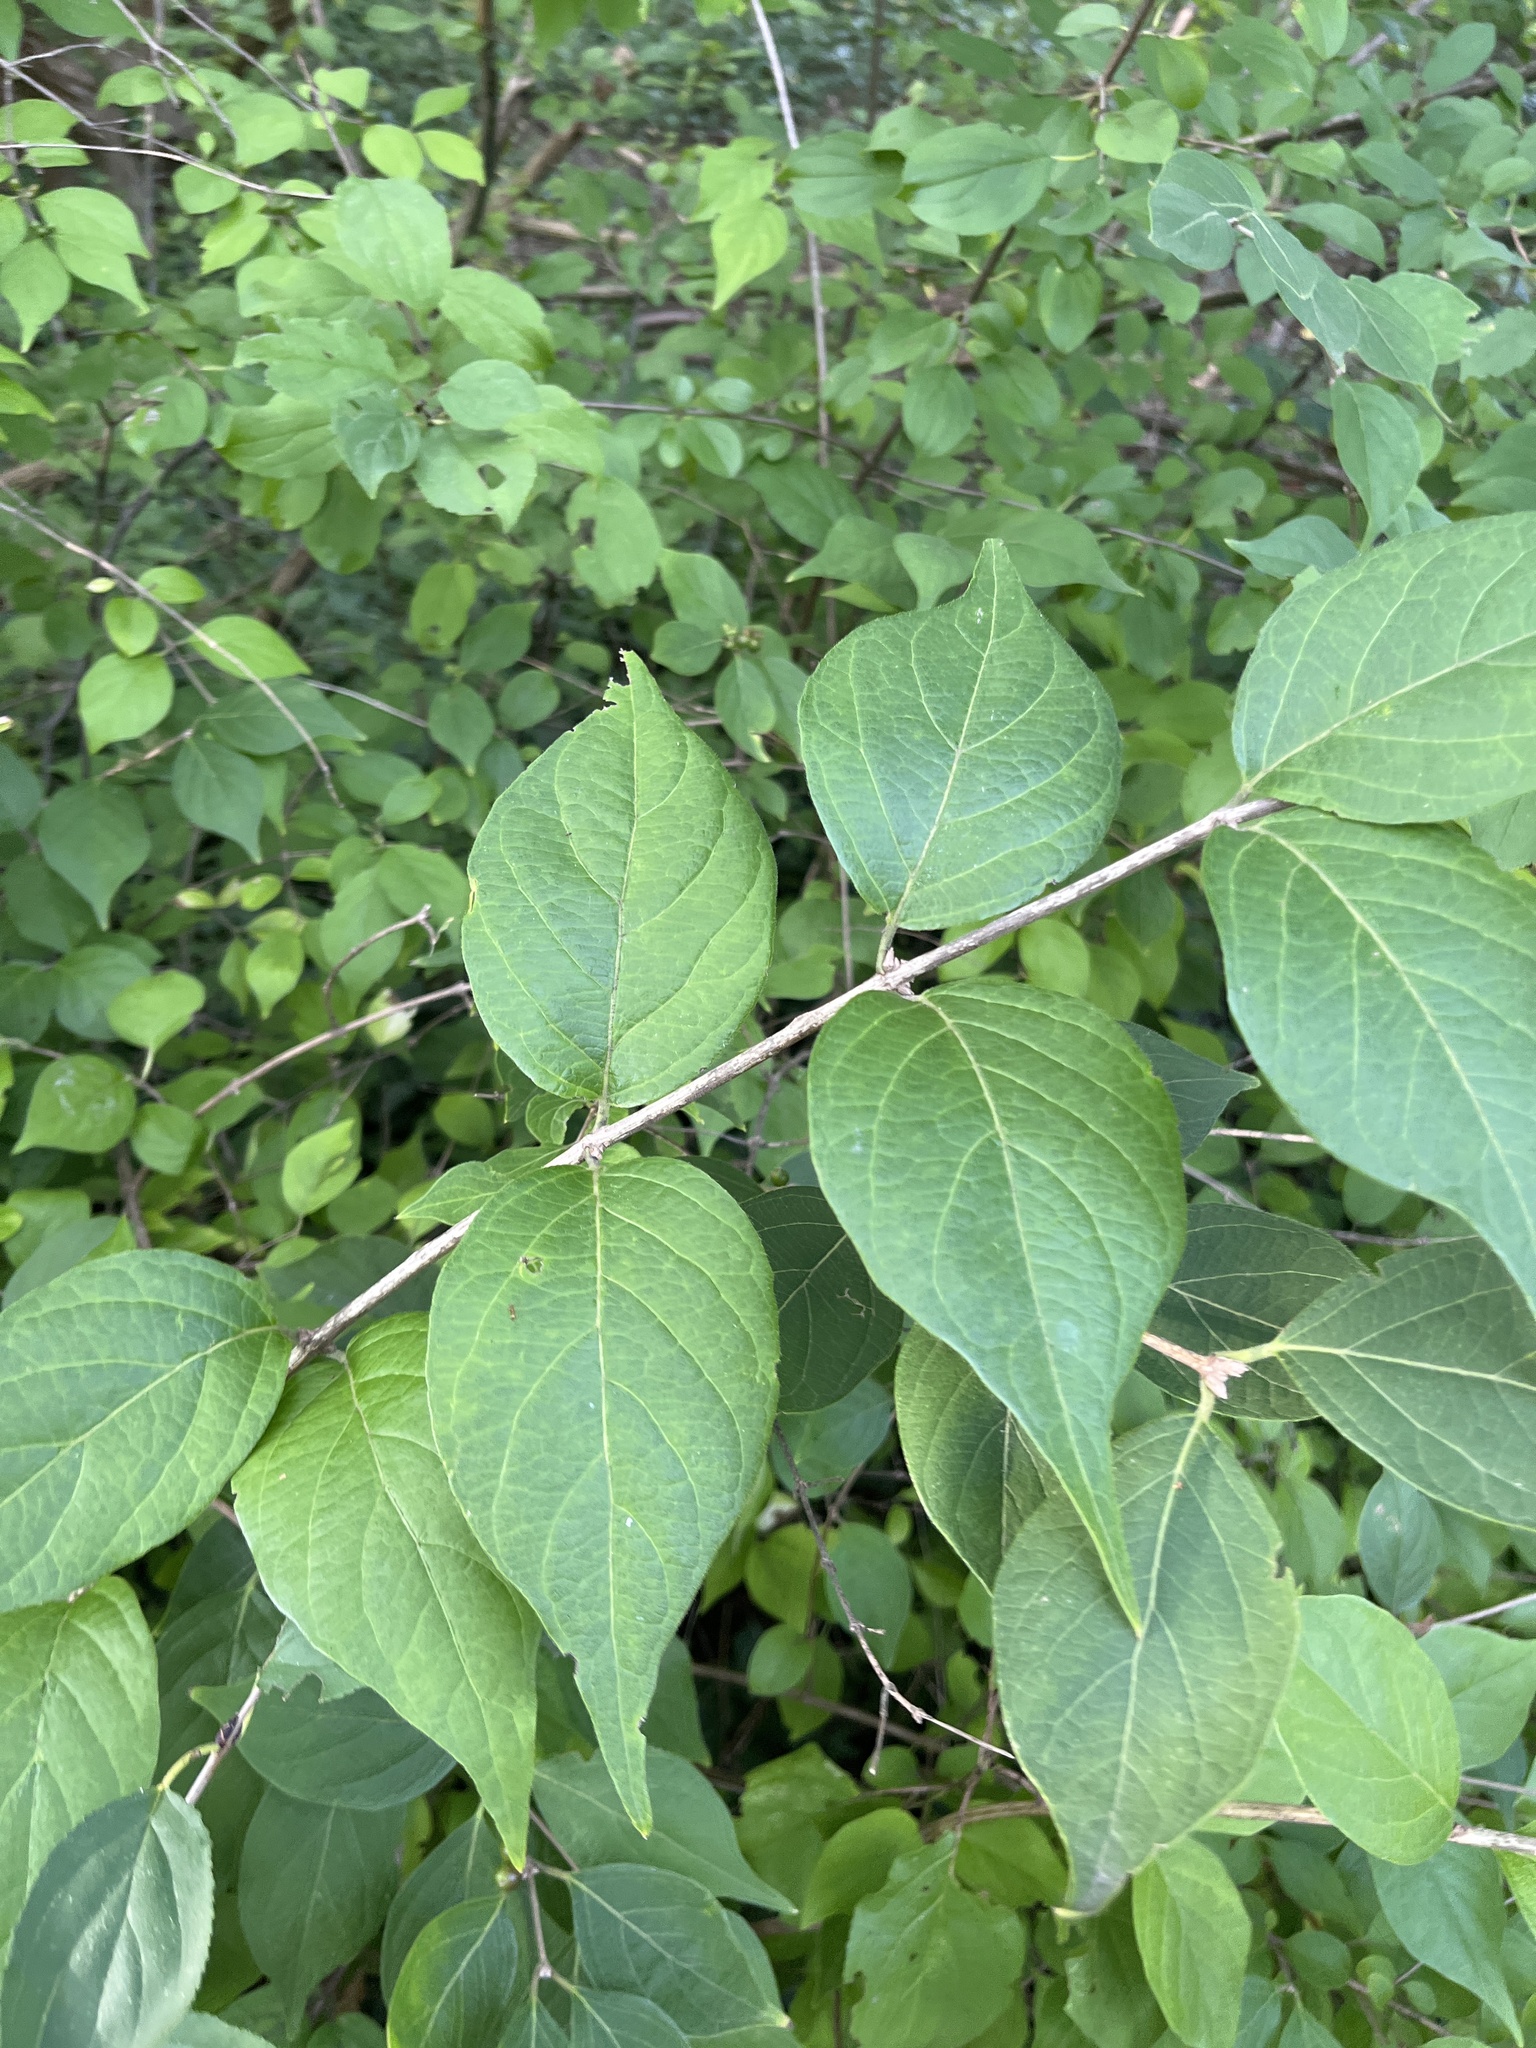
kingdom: Plantae
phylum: Tracheophyta
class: Magnoliopsida
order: Dipsacales
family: Caprifoliaceae
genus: Lonicera
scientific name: Lonicera maackii
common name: Amur honeysuckle
